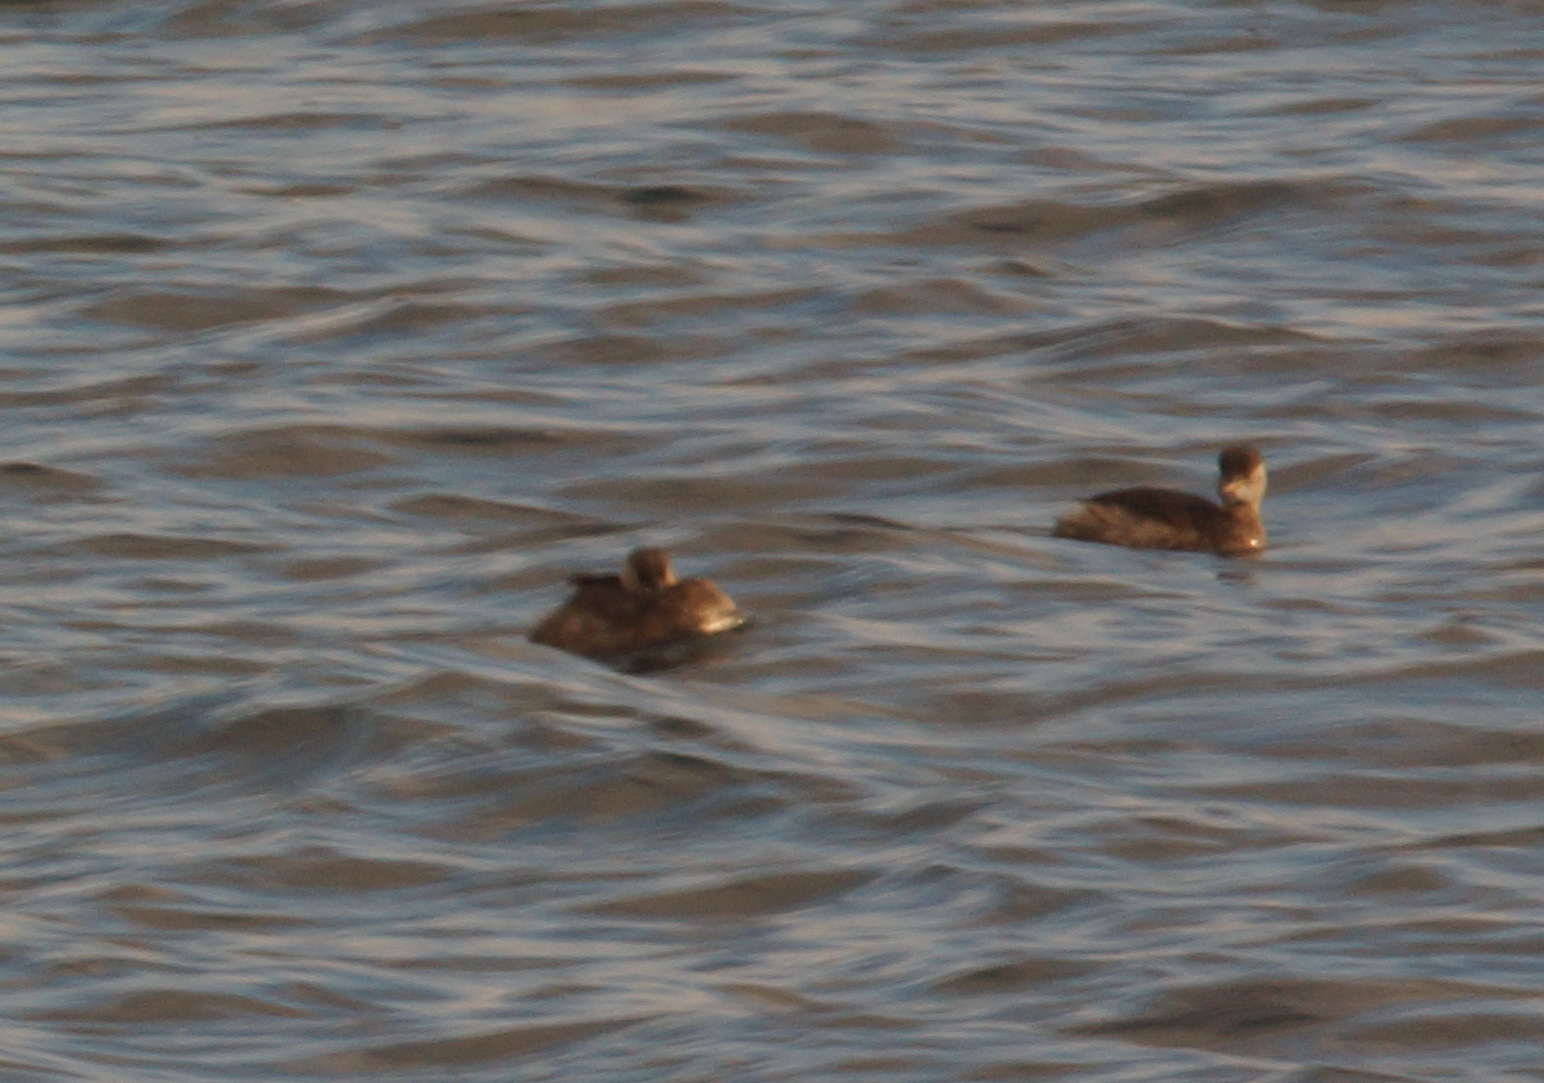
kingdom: Animalia
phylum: Chordata
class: Aves
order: Podicipediformes
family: Podicipedidae
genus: Tachybaptus
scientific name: Tachybaptus ruficollis
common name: Little grebe
